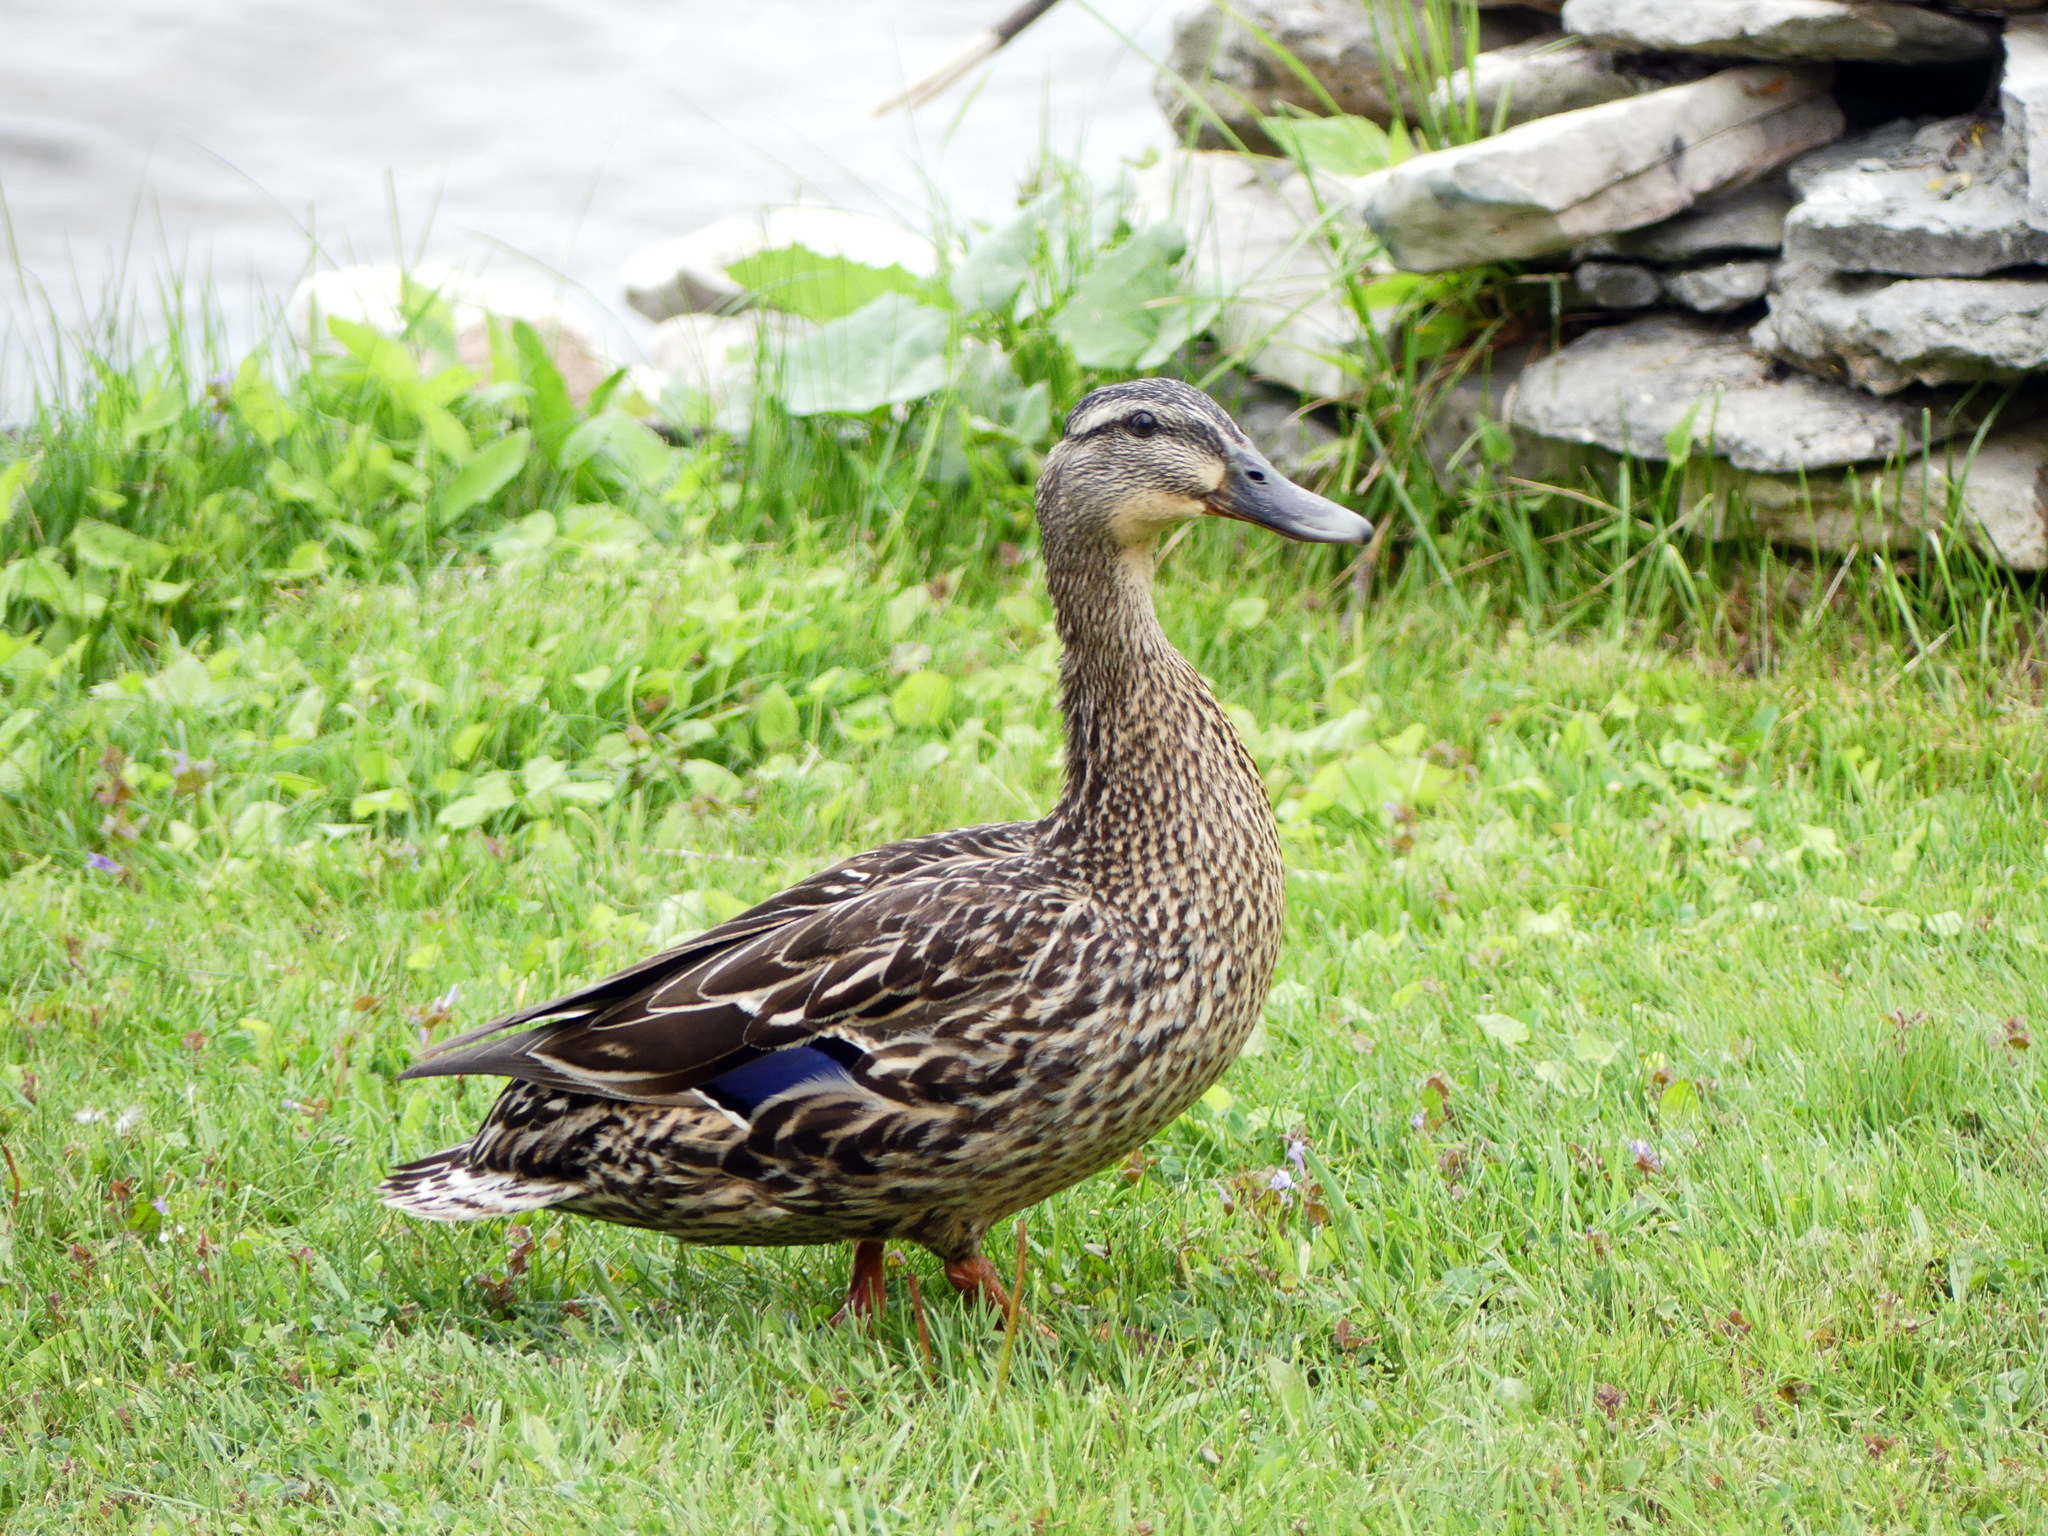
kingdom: Animalia
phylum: Chordata
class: Aves
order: Anseriformes
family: Anatidae
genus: Anas
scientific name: Anas platyrhynchos
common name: Mallard
